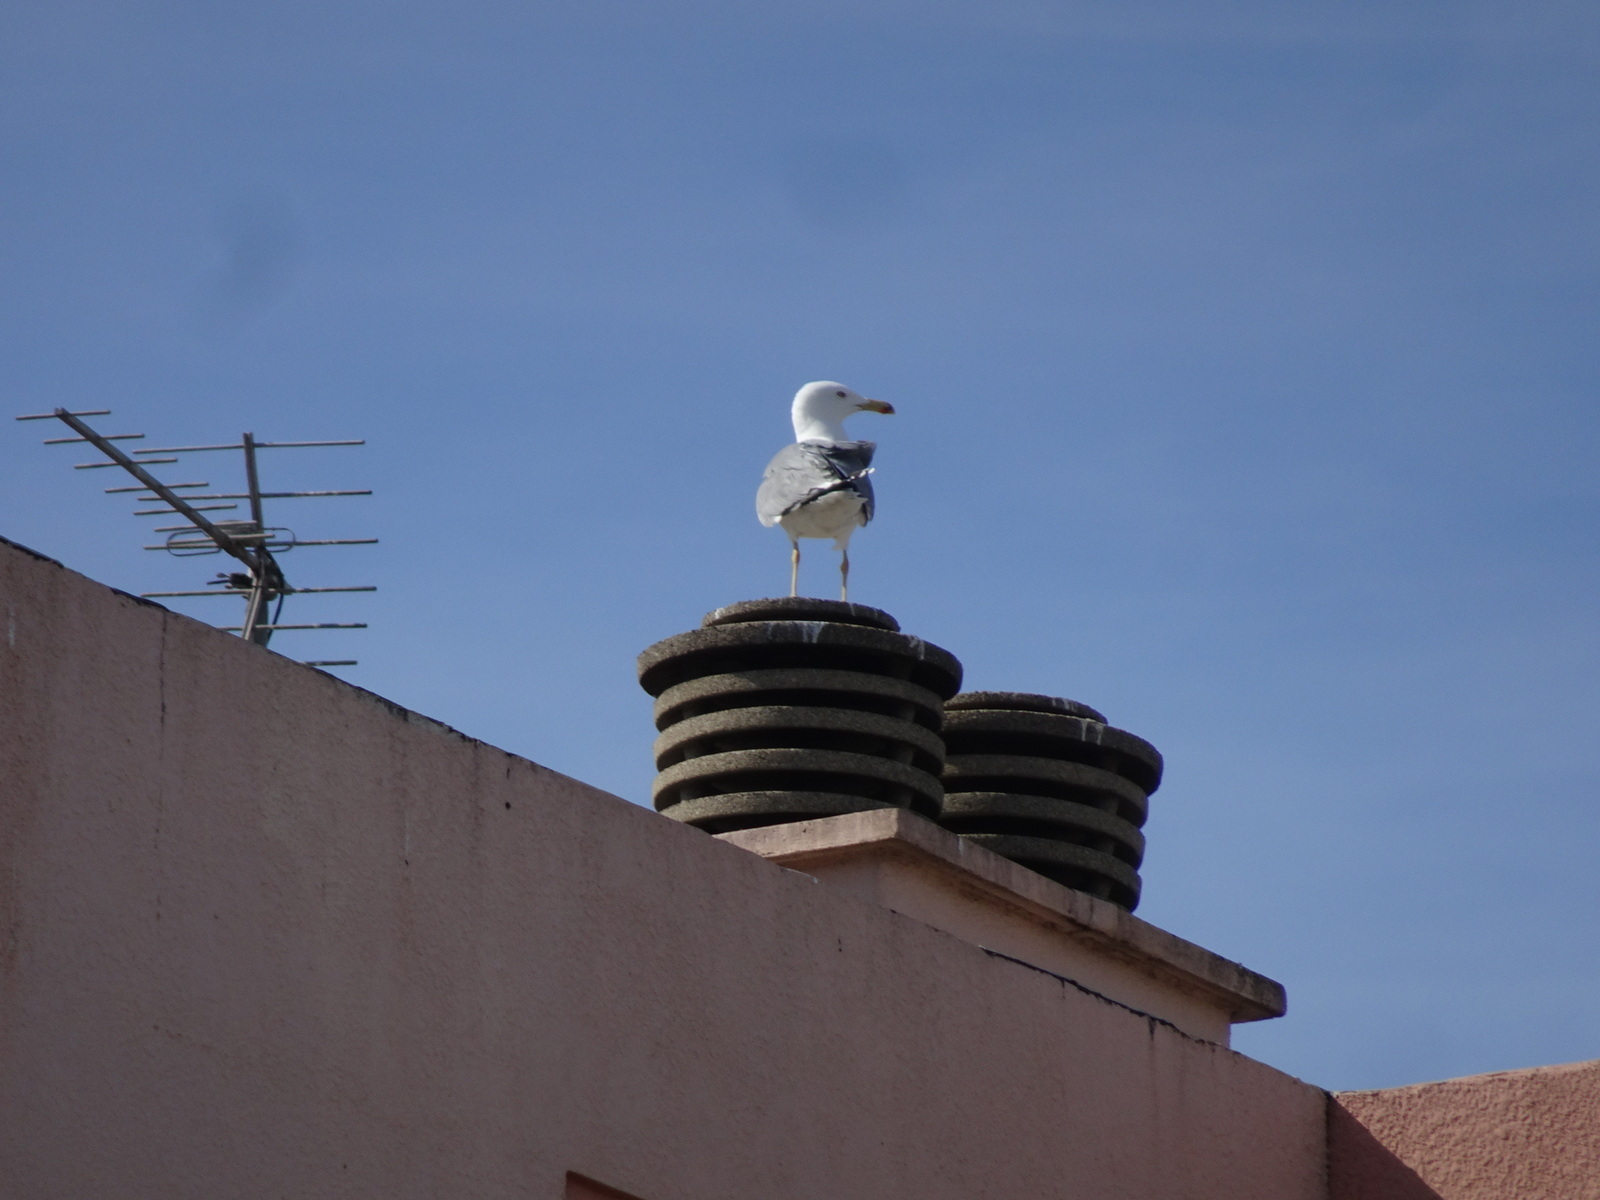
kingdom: Animalia
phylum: Chordata
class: Aves
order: Charadriiformes
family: Laridae
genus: Larus
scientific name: Larus michahellis
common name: Yellow-legged gull
